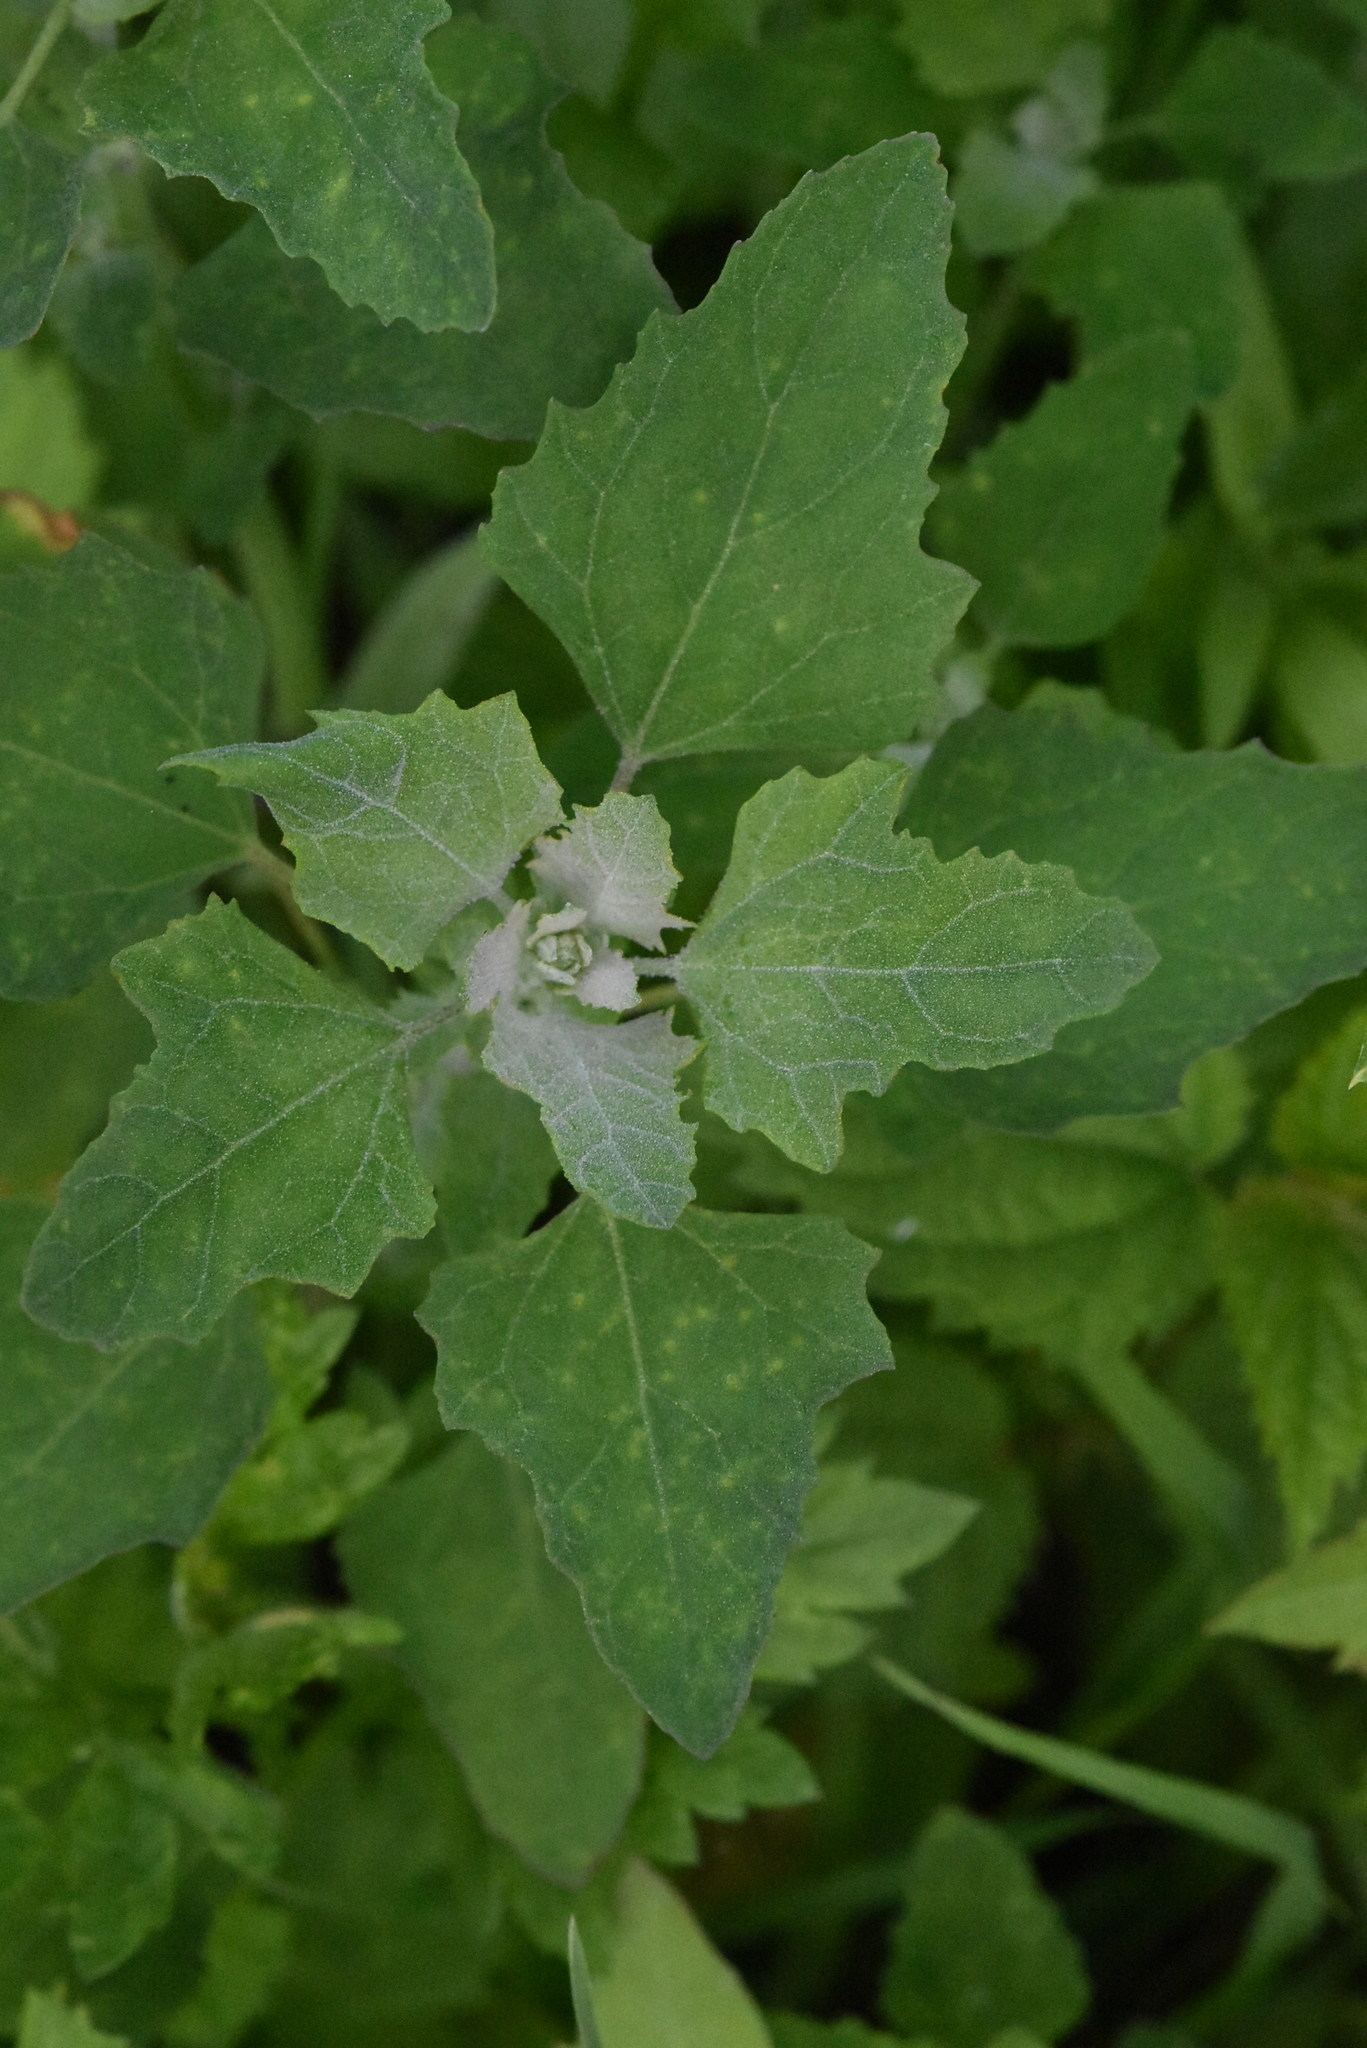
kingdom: Plantae
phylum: Tracheophyta
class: Magnoliopsida
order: Caryophyllales
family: Amaranthaceae
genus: Chenopodium
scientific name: Chenopodium album
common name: Fat-hen
